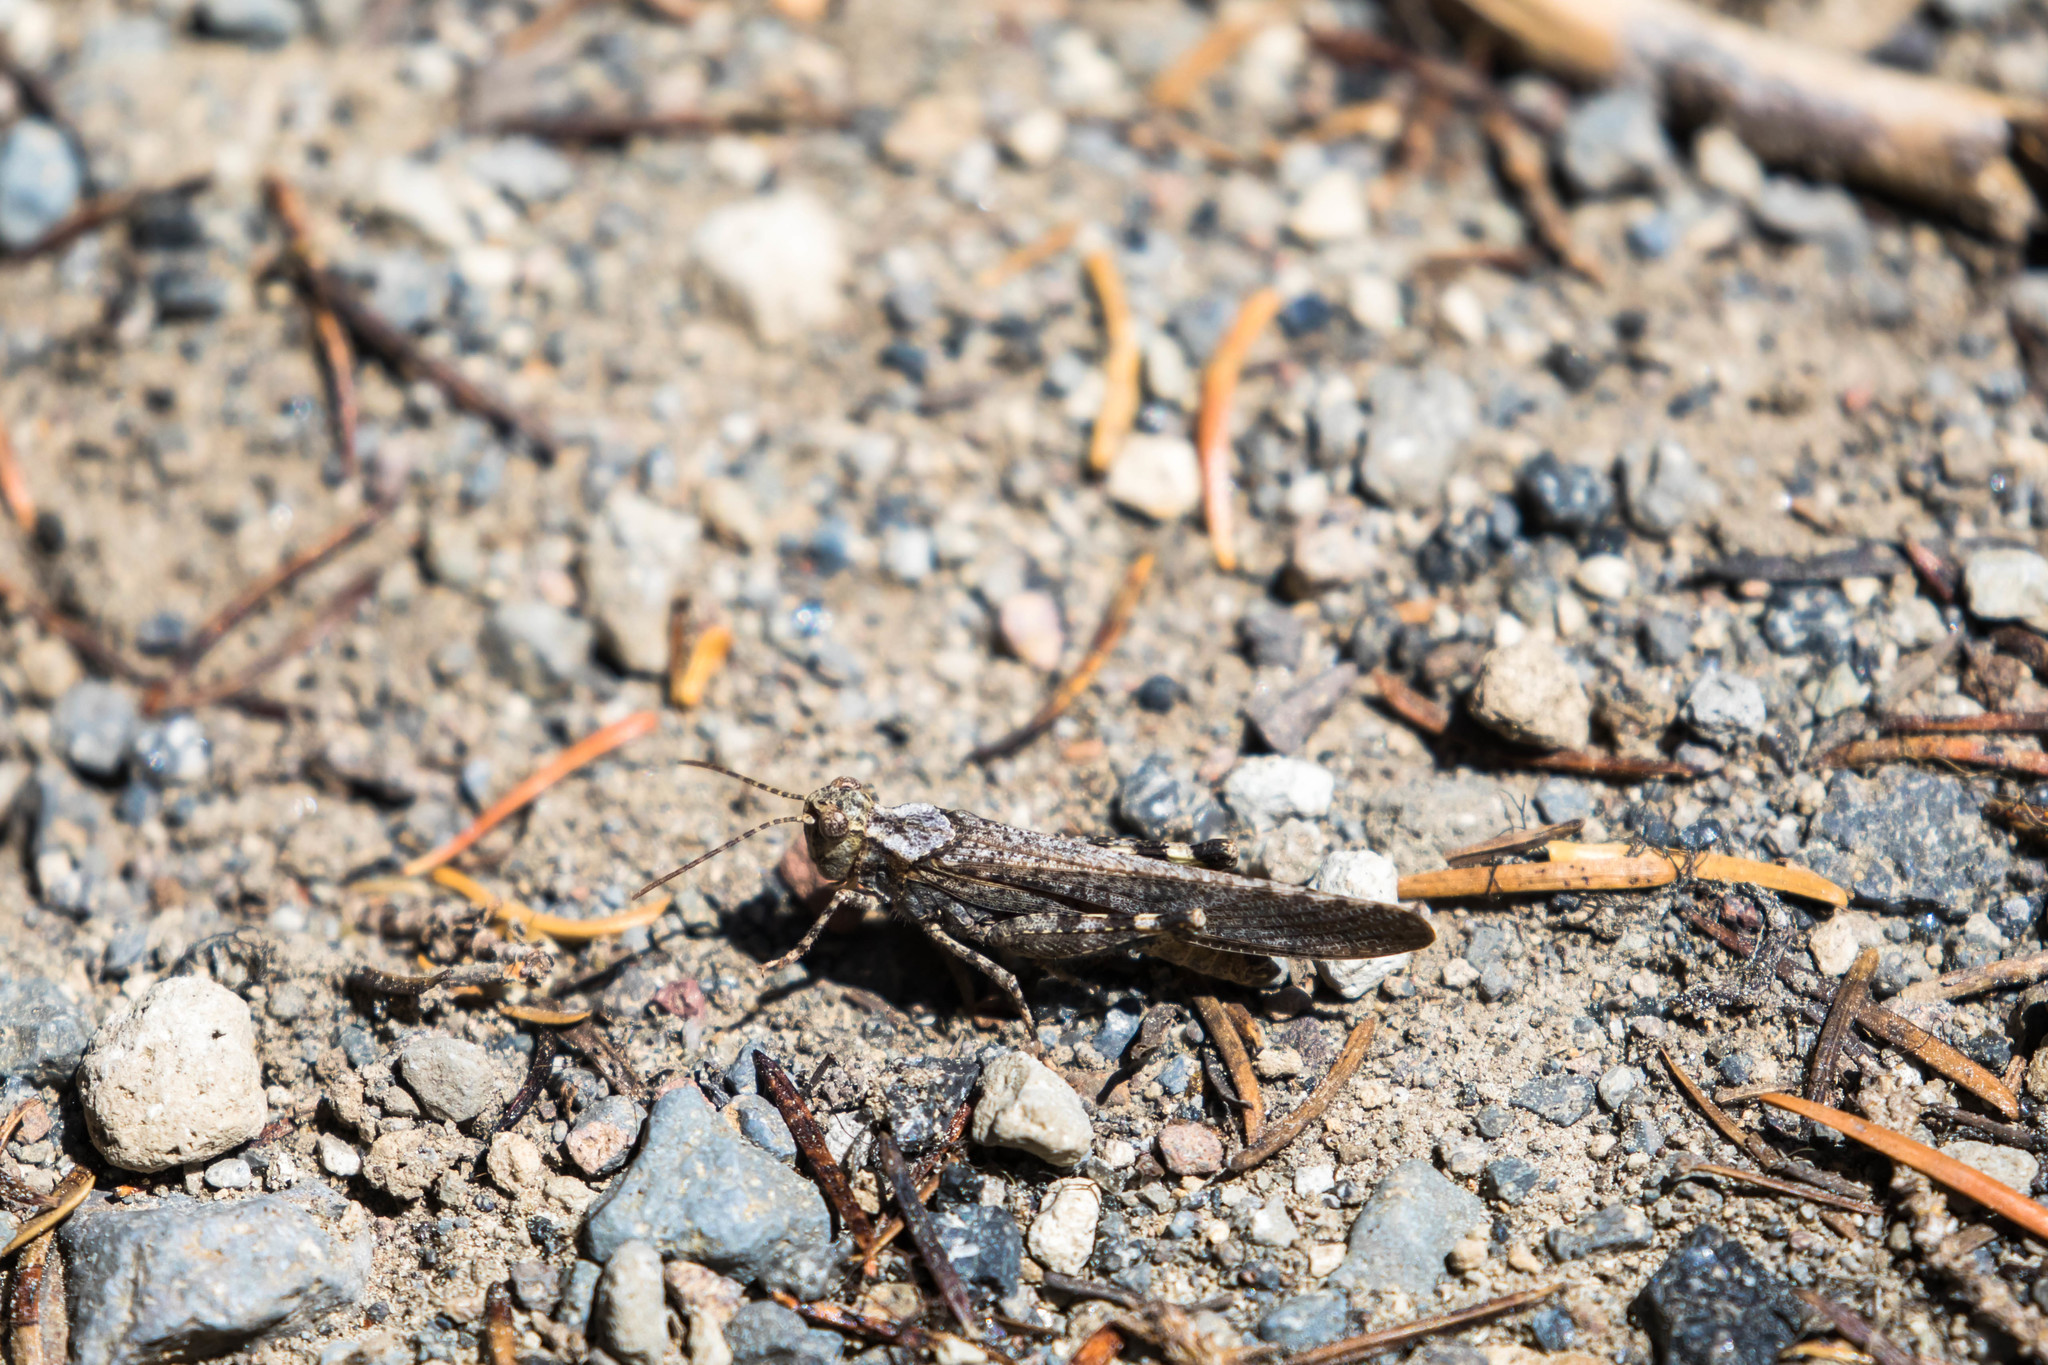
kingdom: Animalia
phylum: Arthropoda
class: Insecta
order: Orthoptera
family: Acrididae
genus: Trimerotropis
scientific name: Trimerotropis verruculata
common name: Crackling forest grasshopper
